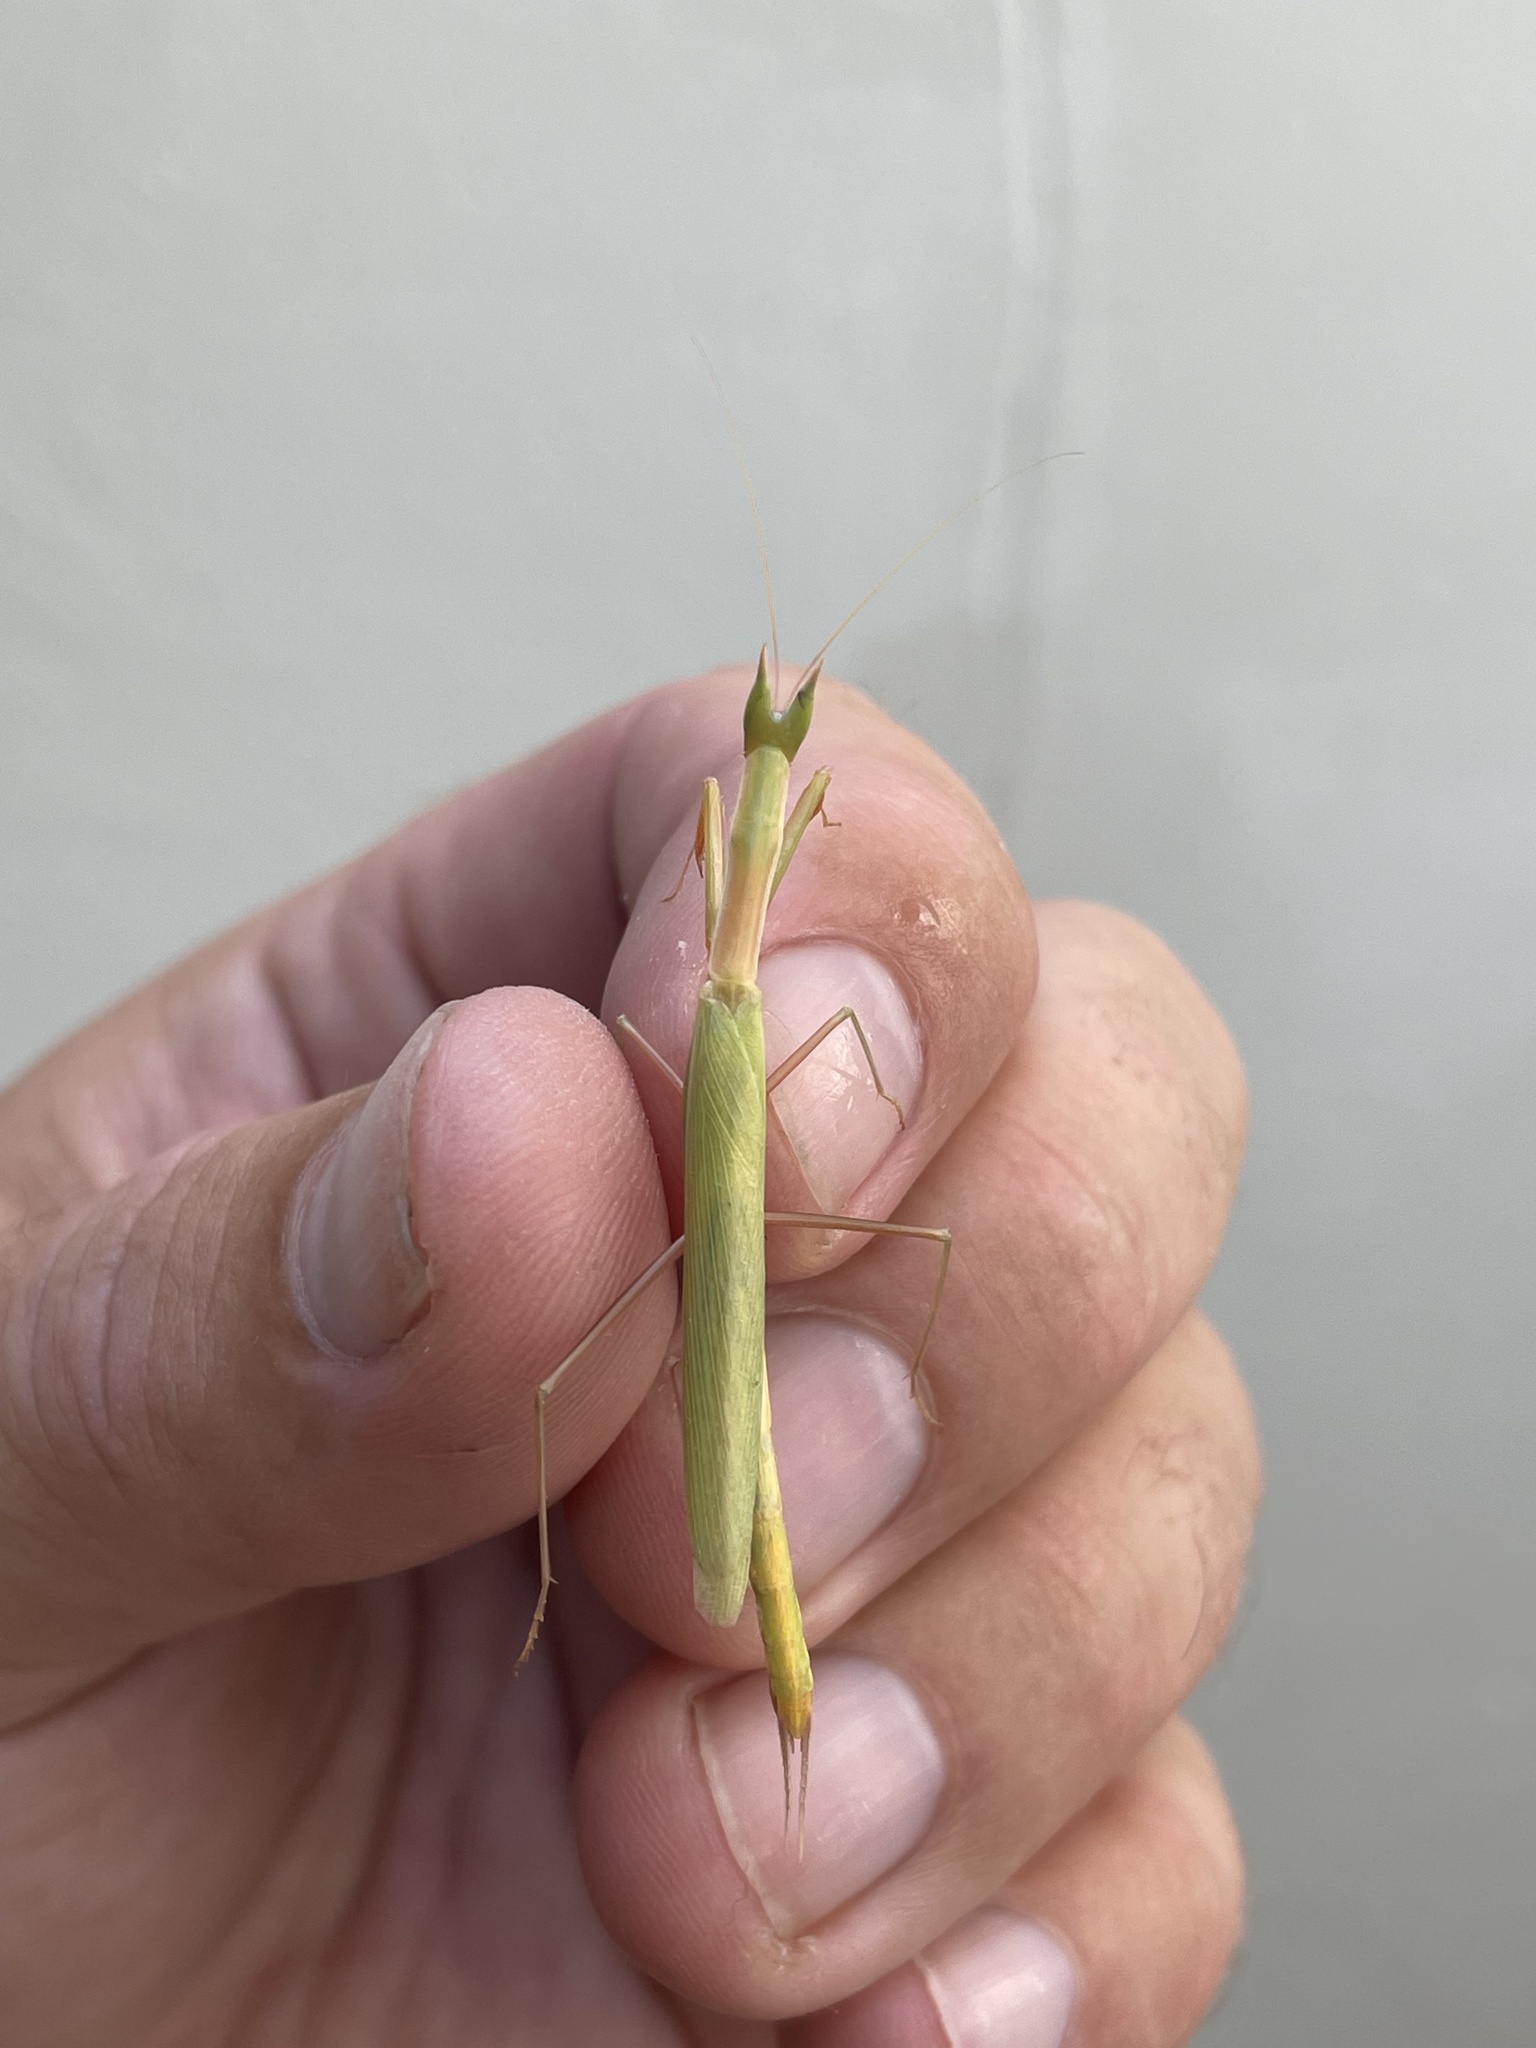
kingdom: Animalia
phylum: Arthropoda
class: Insecta
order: Mantodea
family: Eremiaphilidae
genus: Episcopomantis
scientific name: Episcopomantis chalybea
